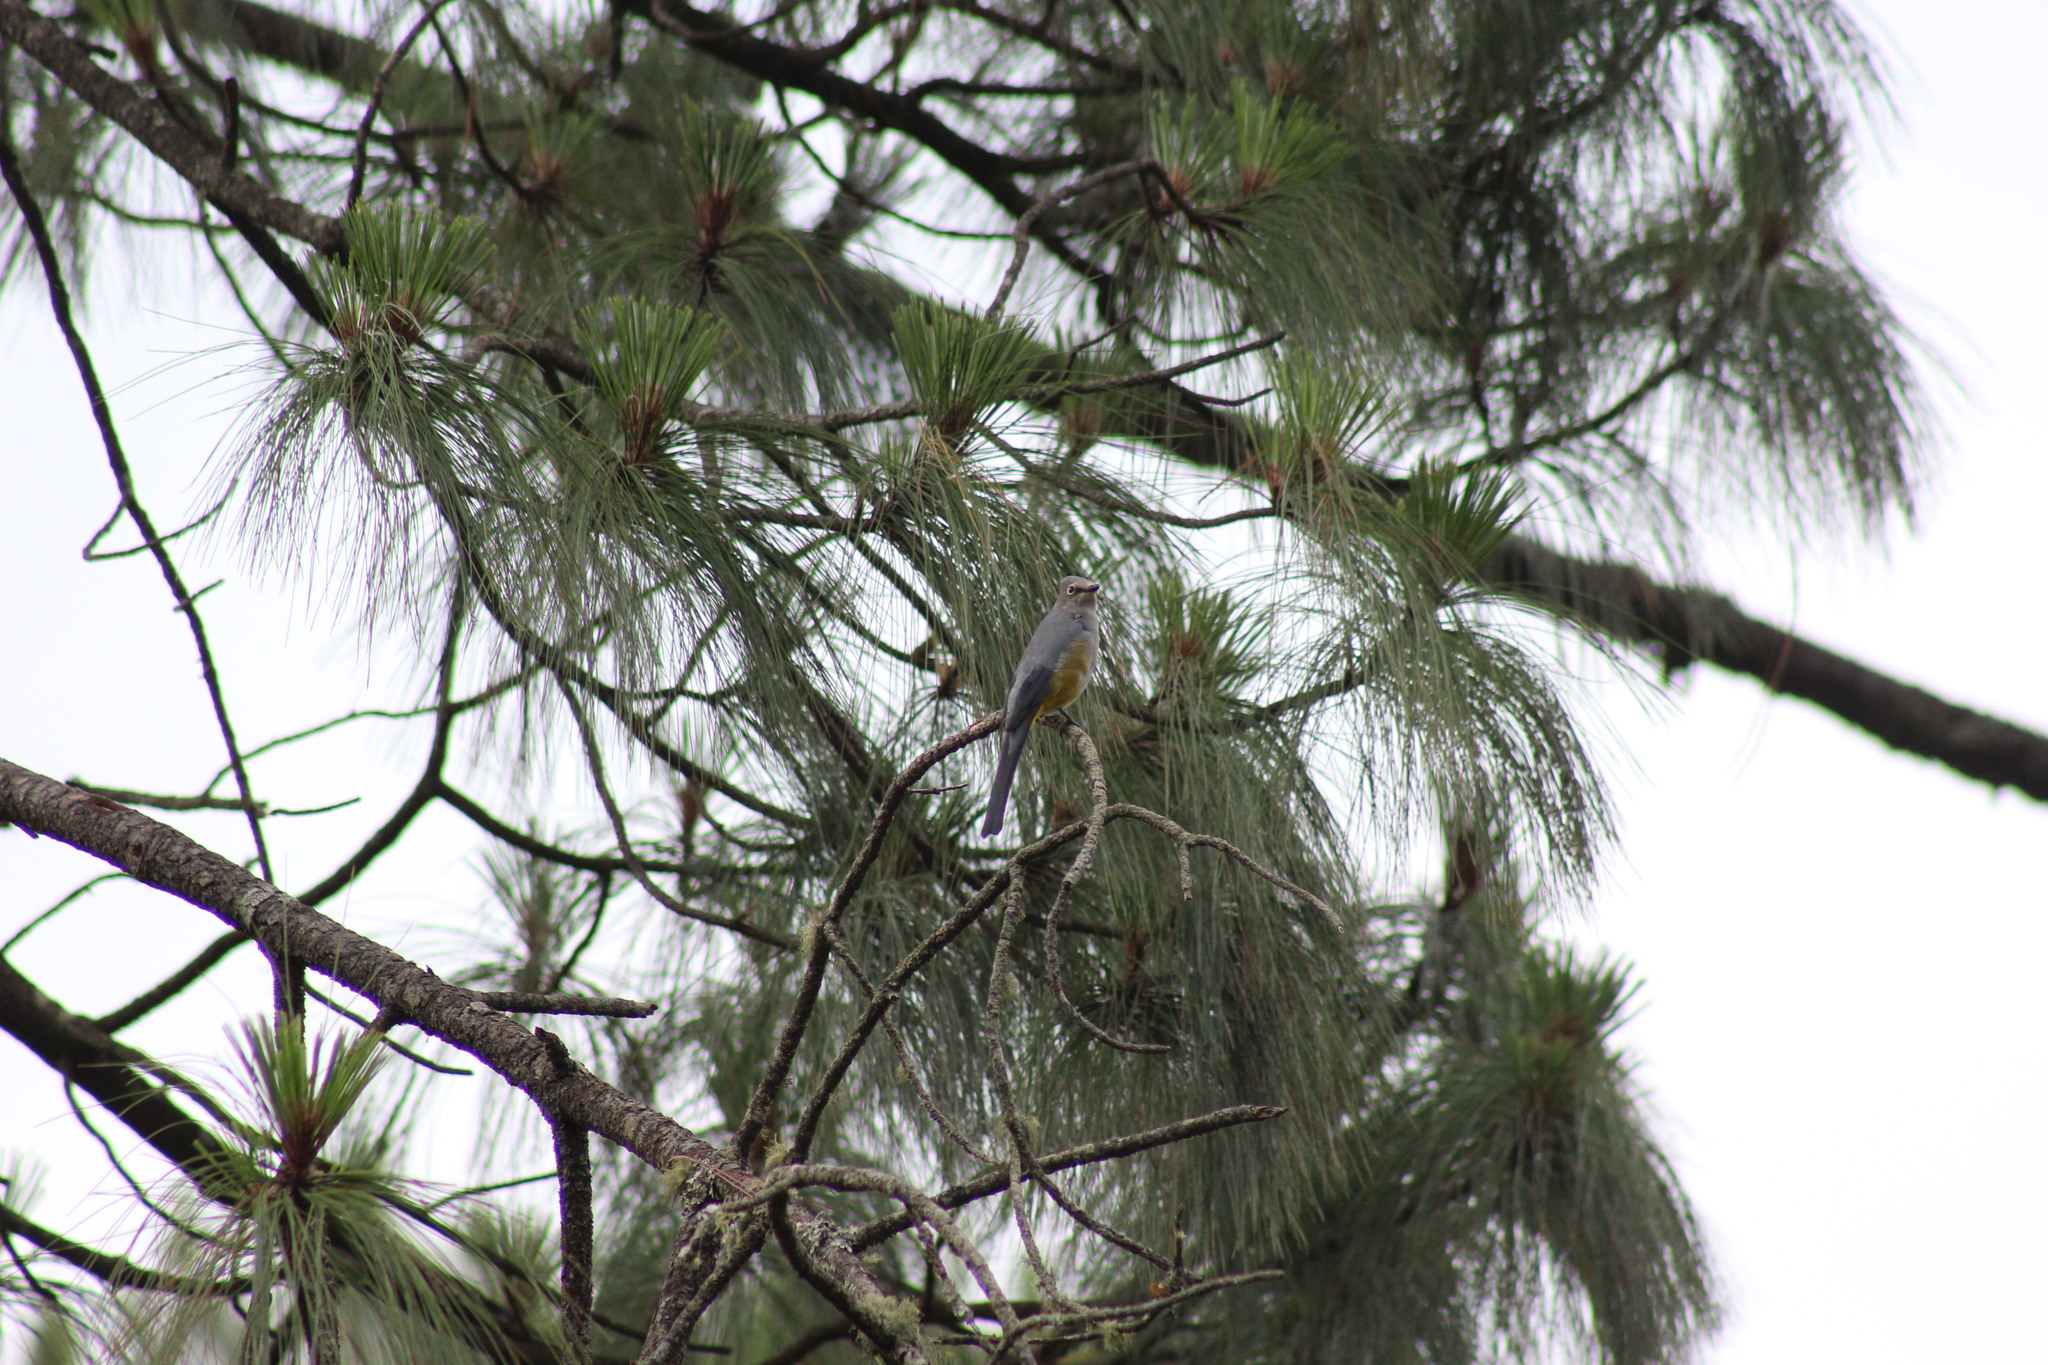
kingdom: Animalia
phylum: Chordata
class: Aves
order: Passeriformes
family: Ptilogonatidae
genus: Ptilogonys
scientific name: Ptilogonys cinereus
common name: Gray silky-flycatcher
